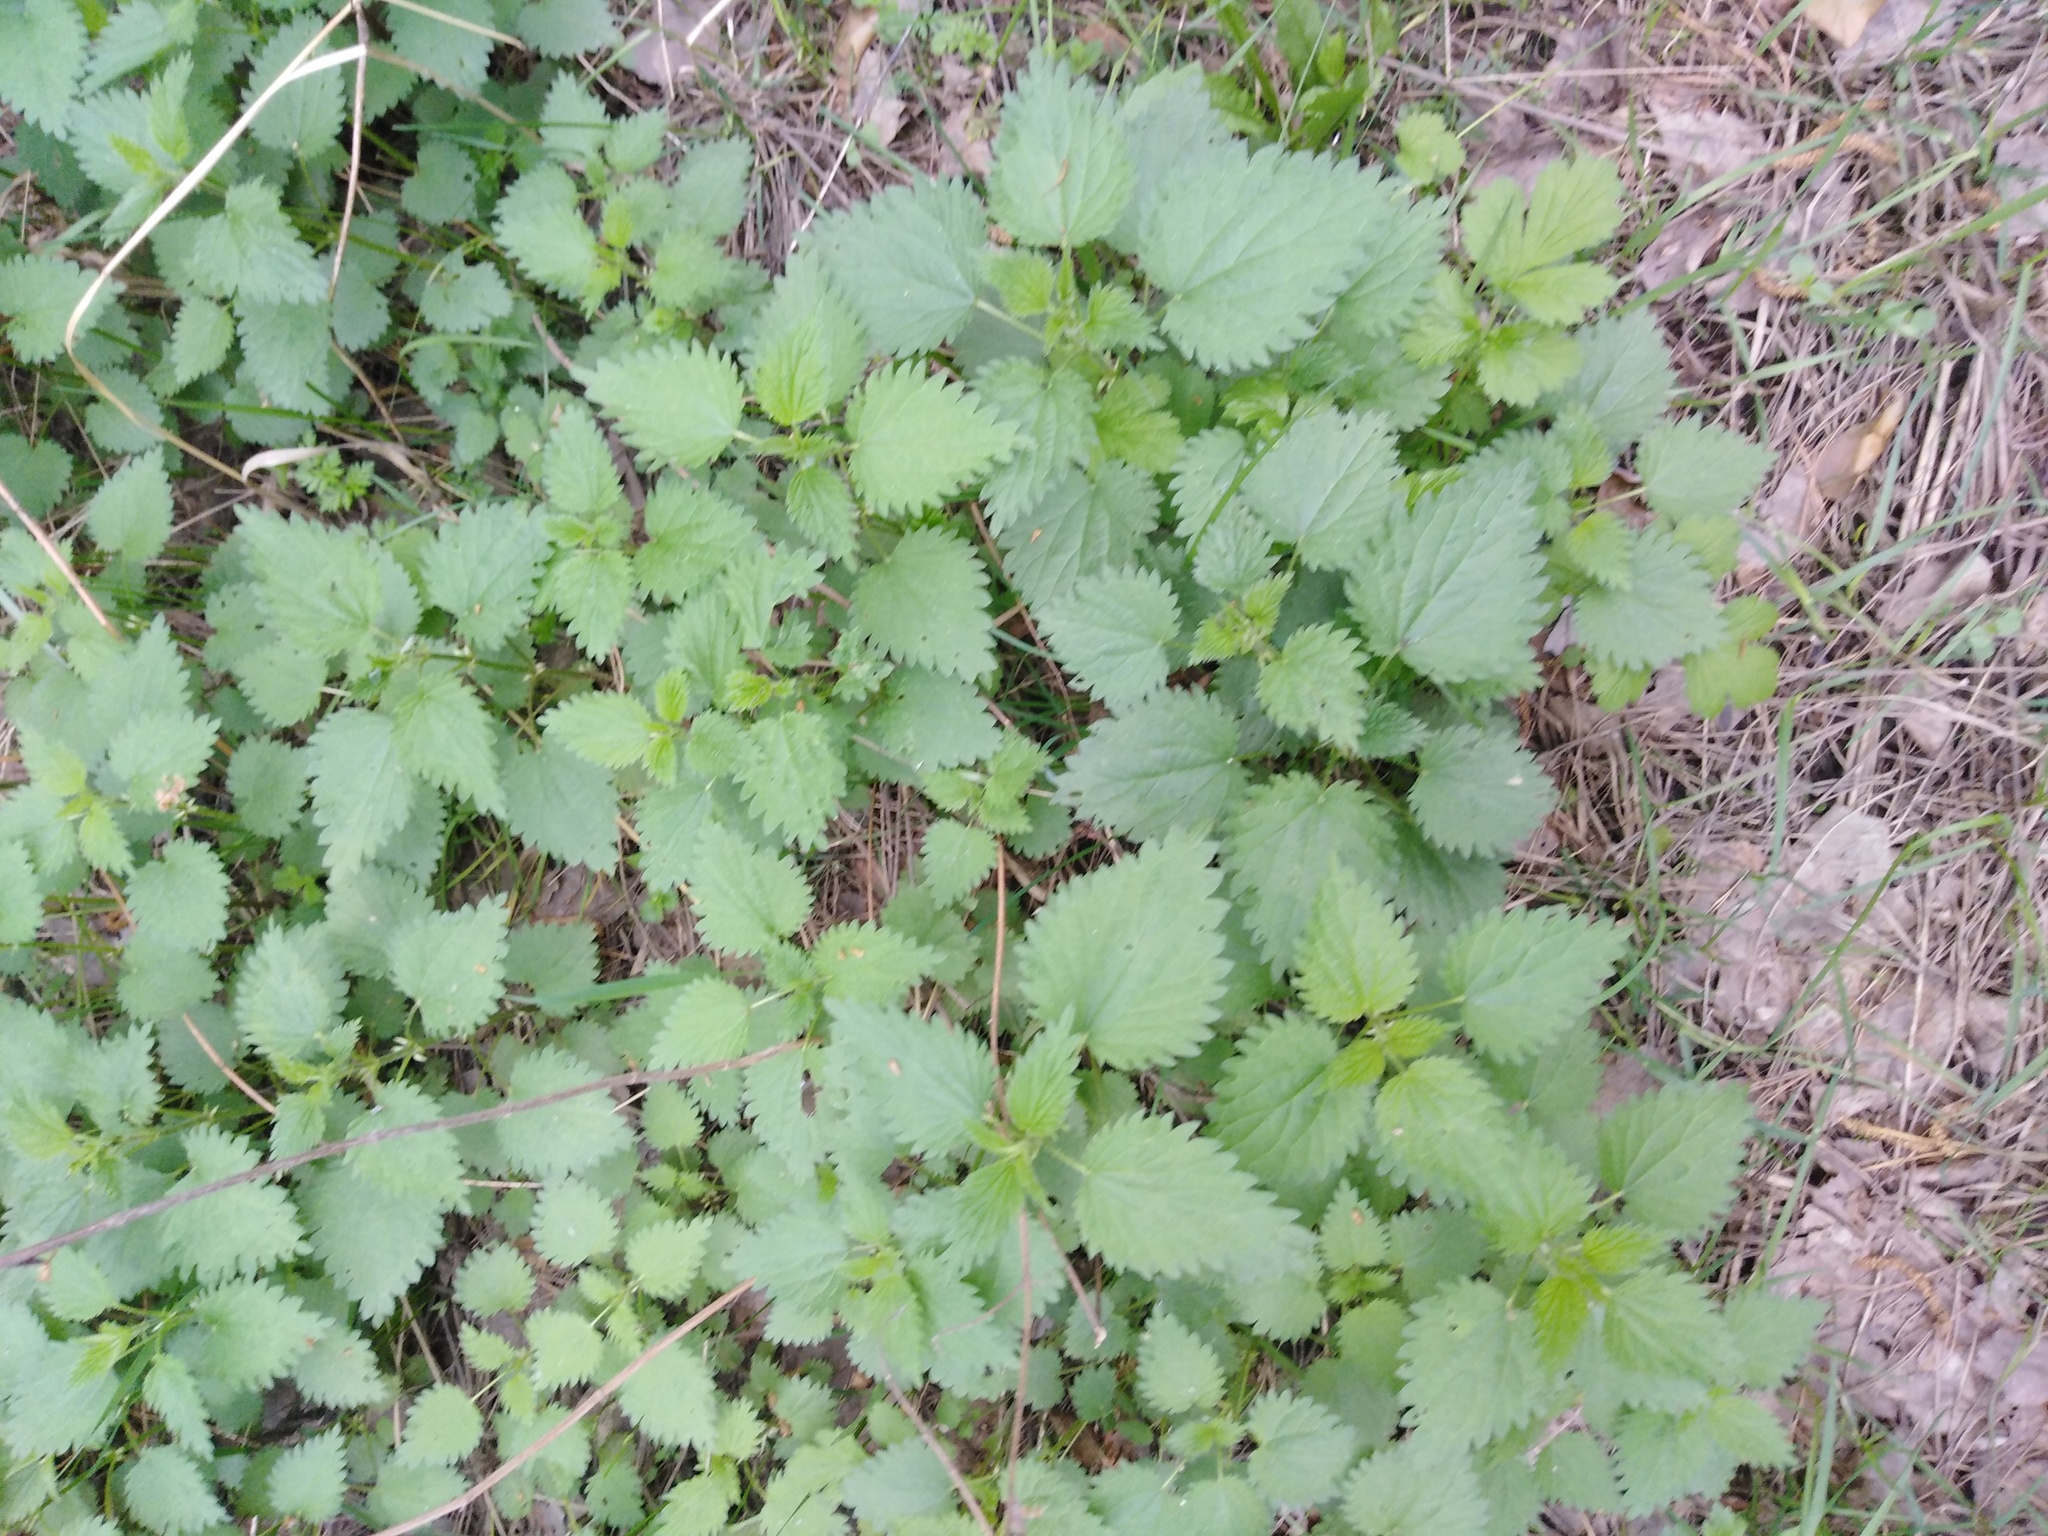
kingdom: Plantae
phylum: Tracheophyta
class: Magnoliopsida
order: Rosales
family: Urticaceae
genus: Urtica
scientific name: Urtica dioica
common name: Common nettle
